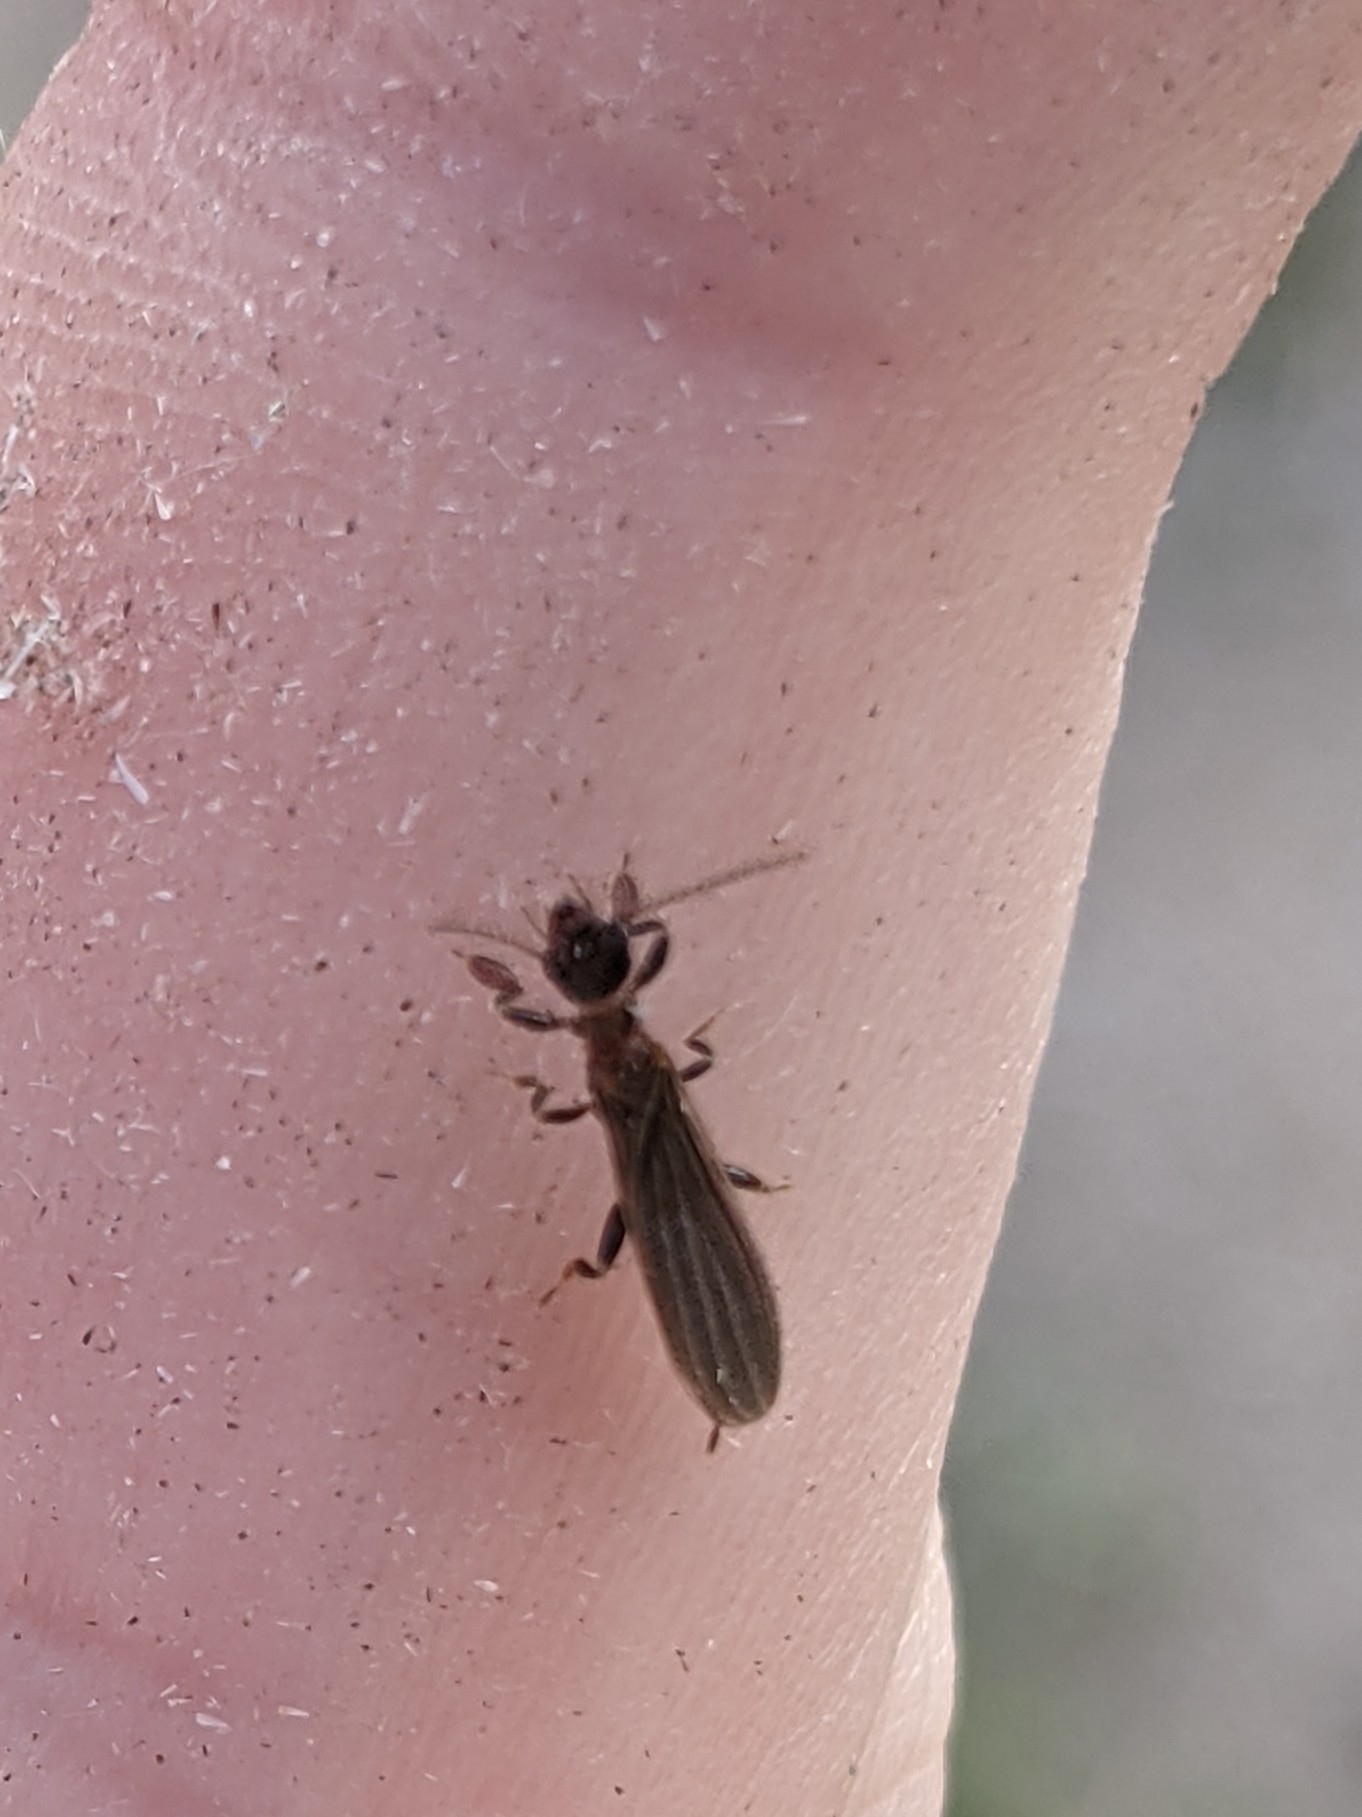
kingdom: Animalia
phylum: Arthropoda
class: Insecta
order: Embioptera
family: Oligotomidae
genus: Oligotoma
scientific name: Oligotoma nigra
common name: Black webspinner
